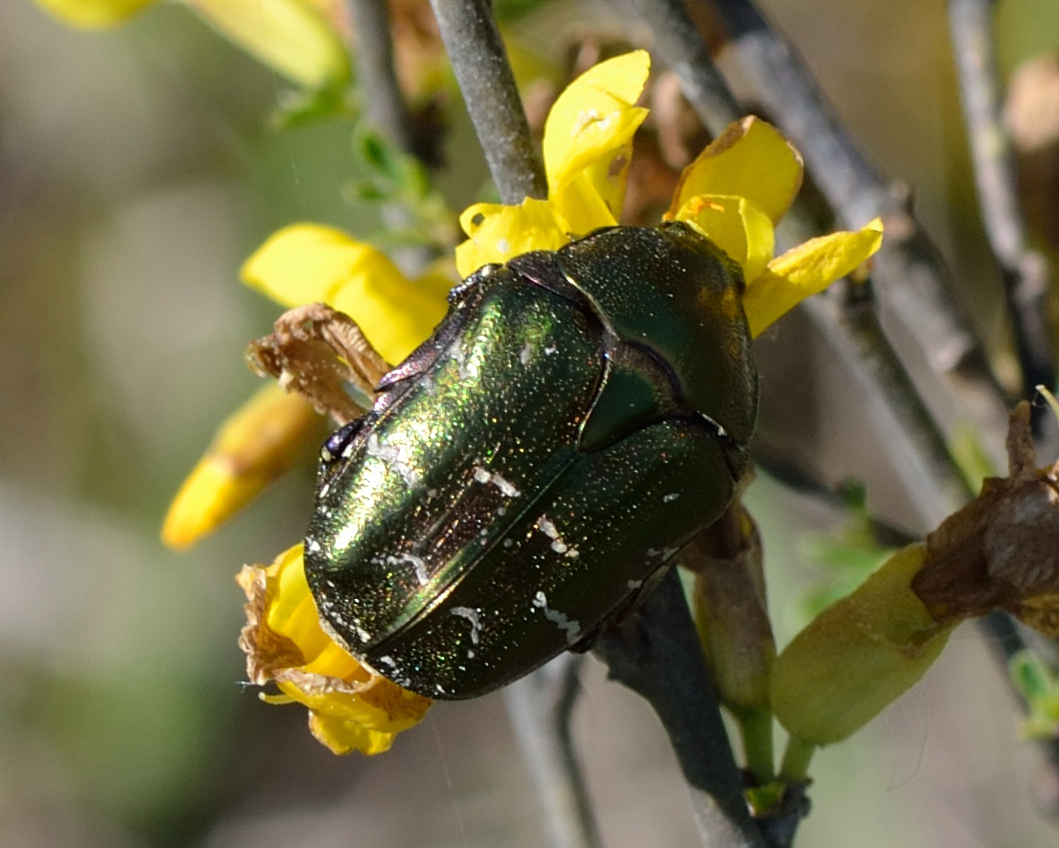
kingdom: Animalia
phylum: Arthropoda
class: Insecta
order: Coleoptera
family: Scarabaeidae
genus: Protaetia
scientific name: Protaetia cuprea
